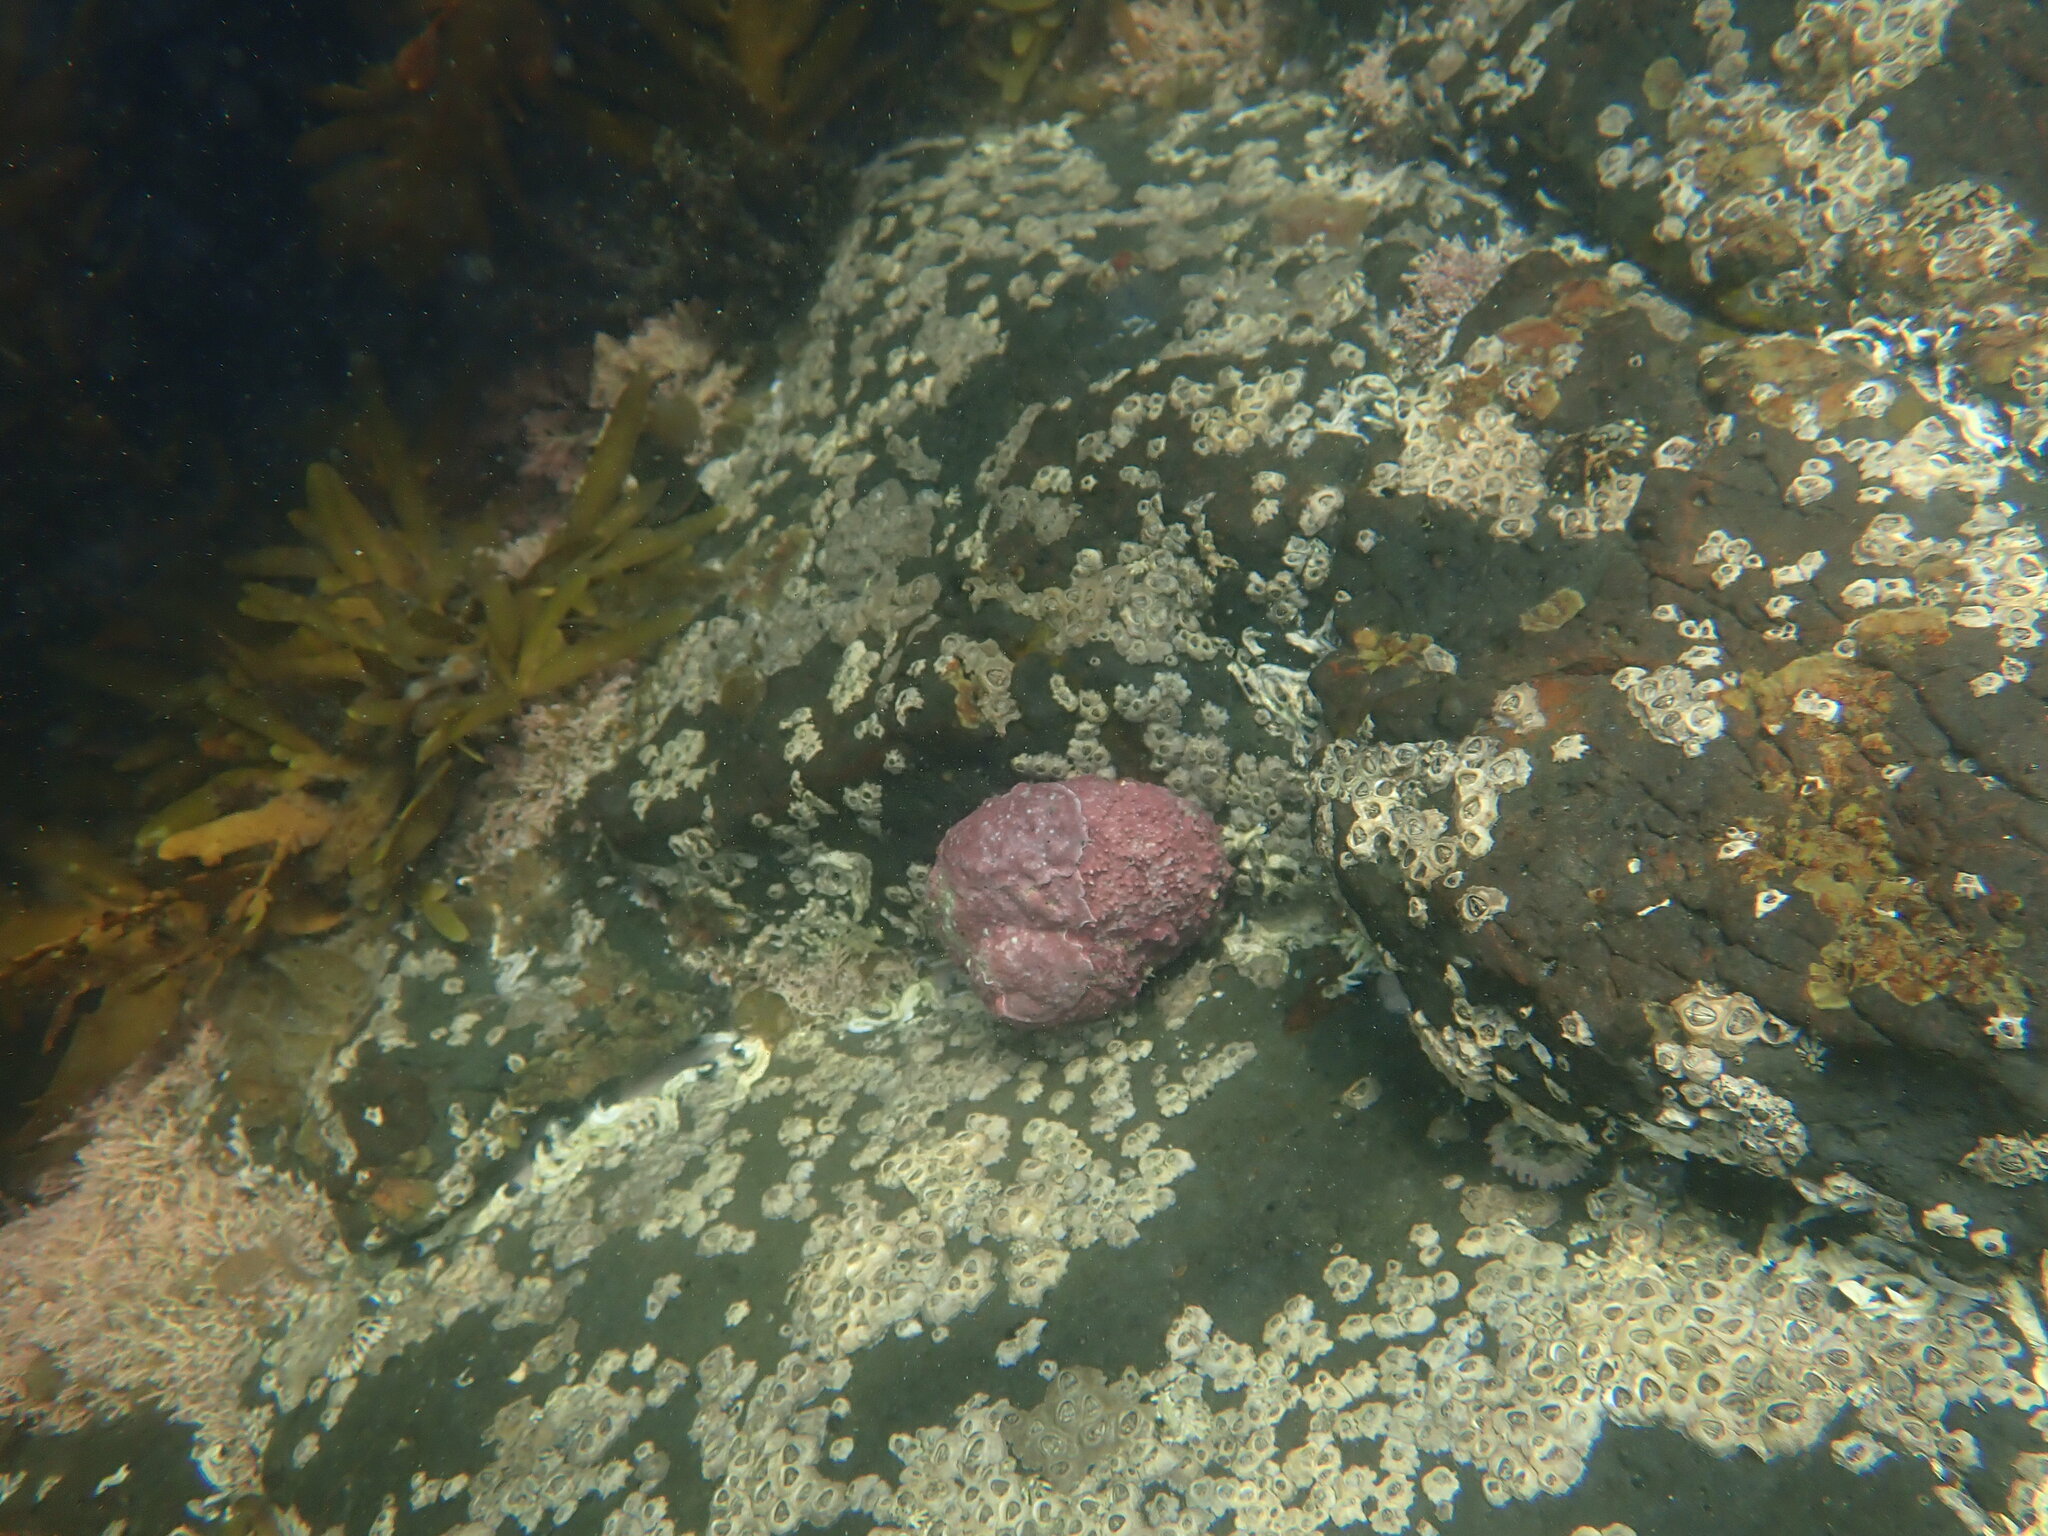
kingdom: Animalia
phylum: Mollusca
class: Gastropoda
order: Trochida
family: Turbinidae
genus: Lunella
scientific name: Lunella smaragda
